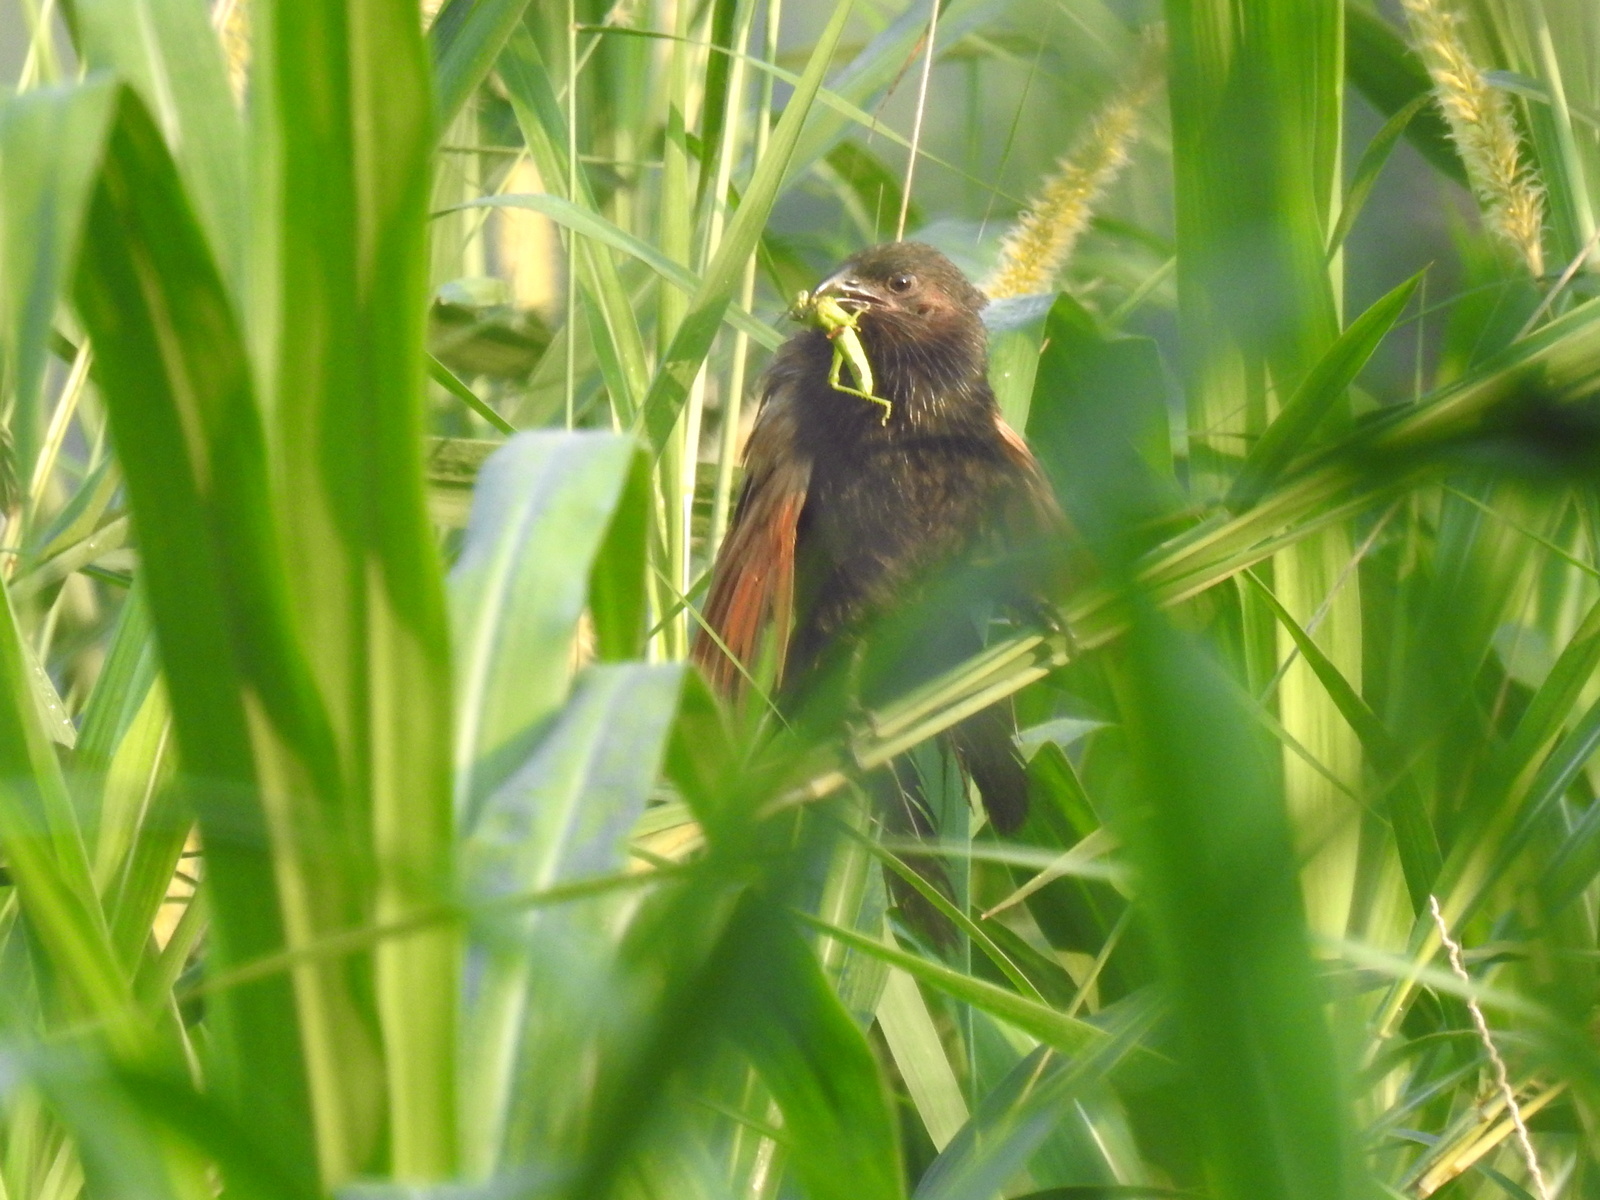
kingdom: Animalia
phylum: Chordata
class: Aves
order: Cuculiformes
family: Cuculidae
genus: Centropus
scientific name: Centropus bengalensis
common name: Lesser coucal
